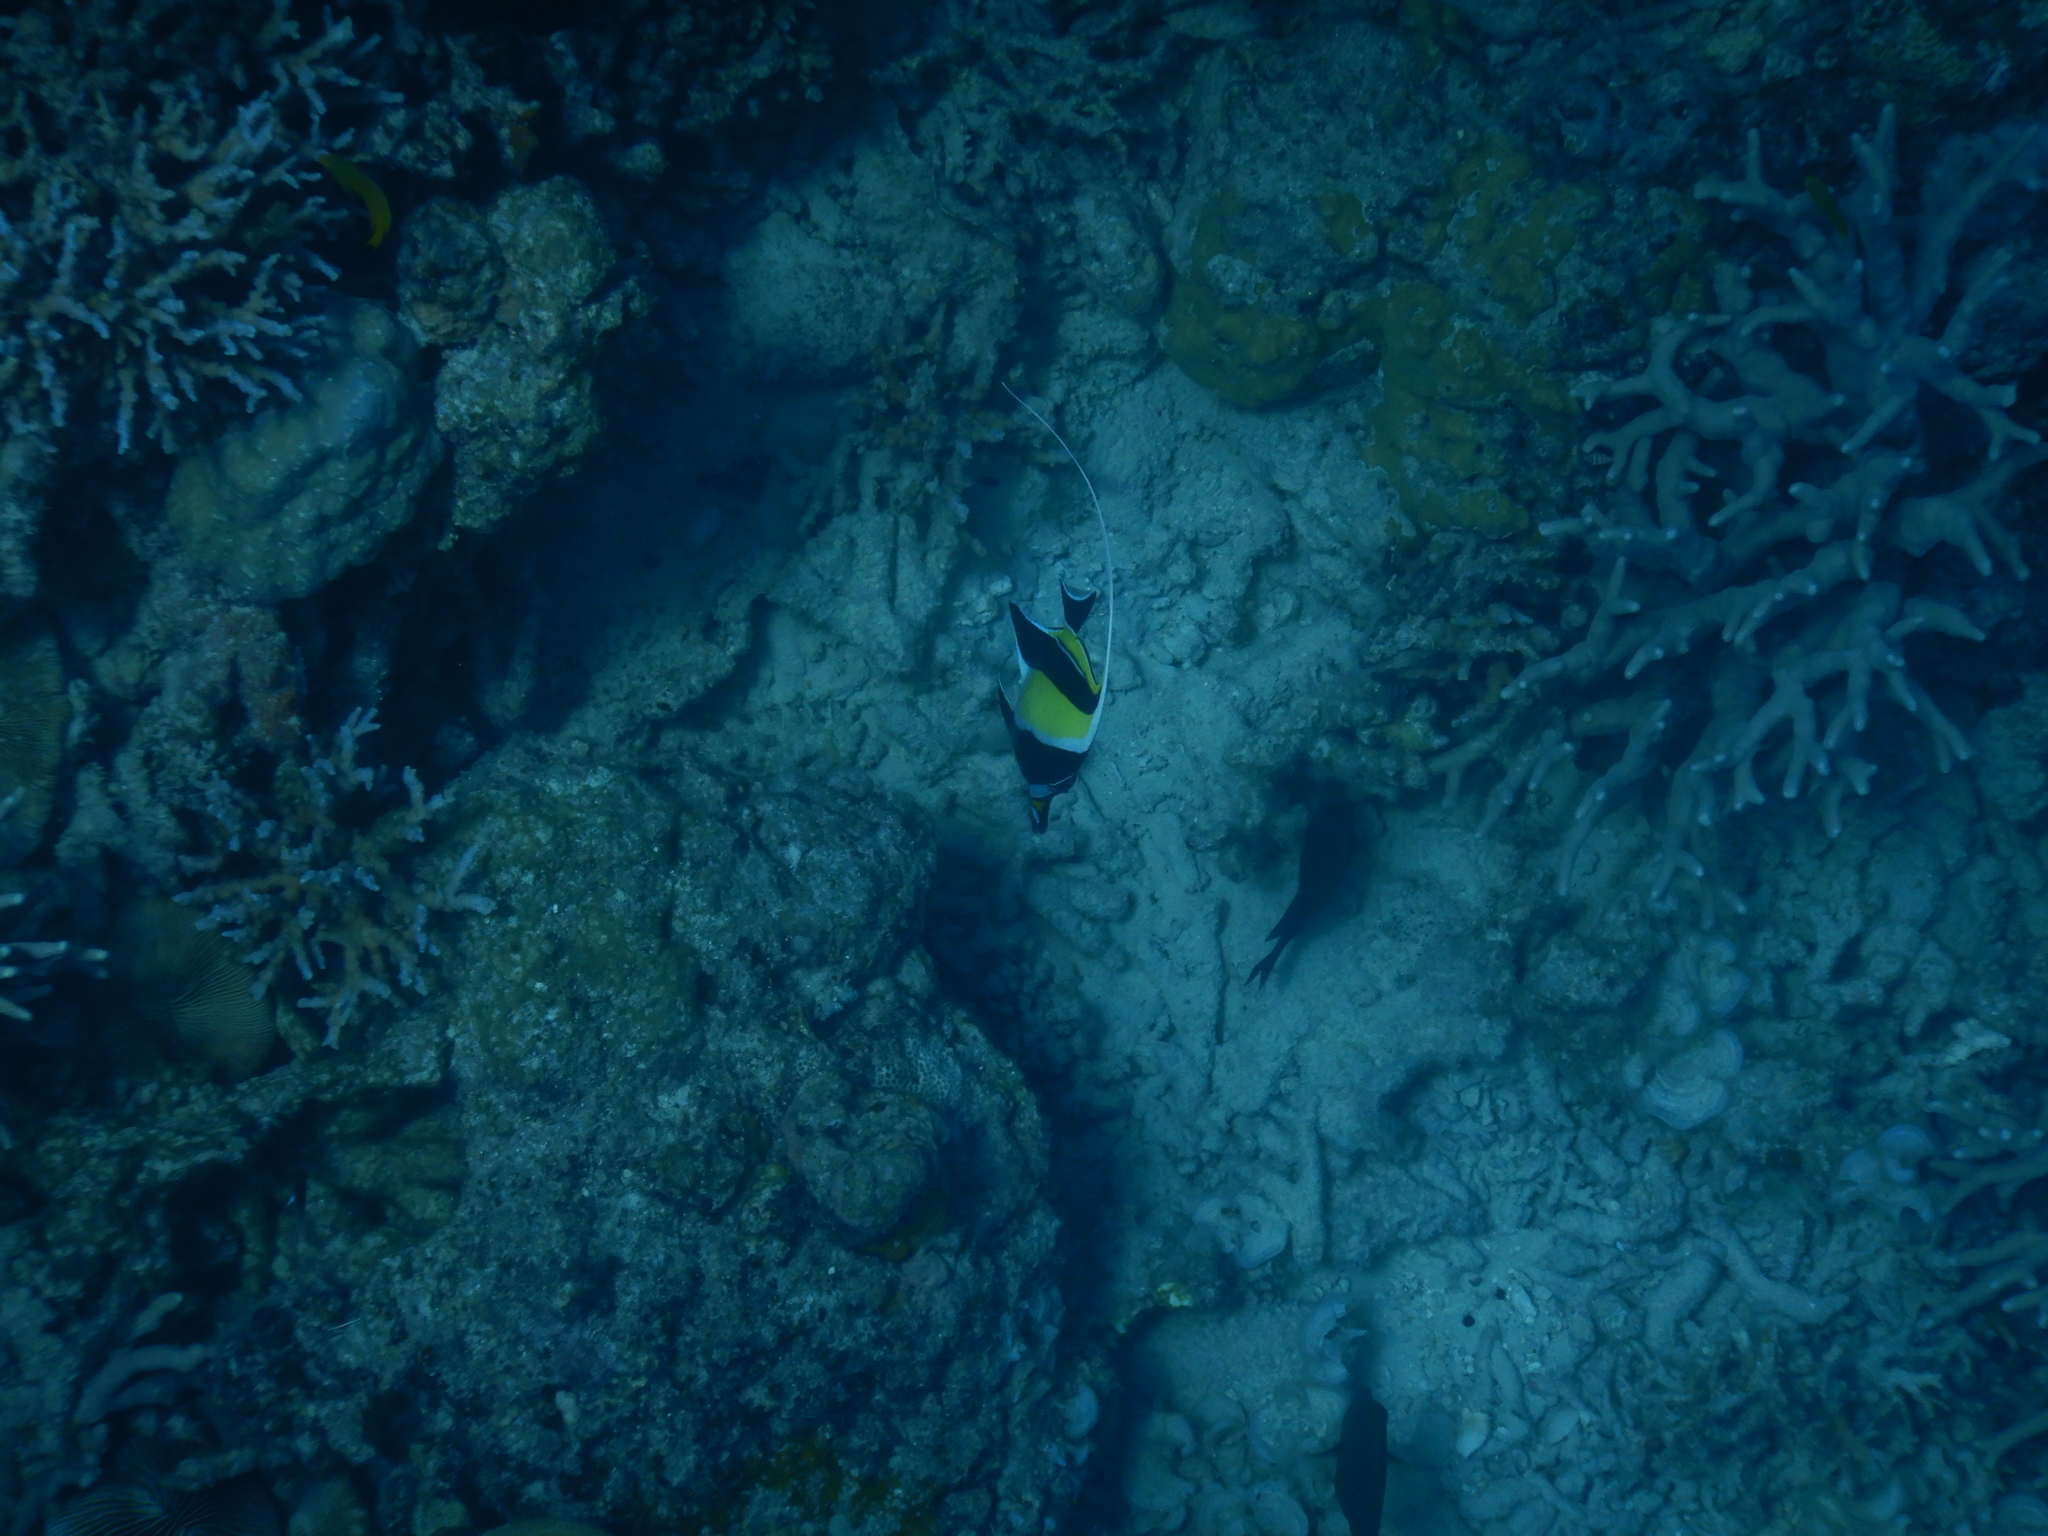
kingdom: Animalia
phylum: Chordata
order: Perciformes
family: Zanclidae
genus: Zanclus
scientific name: Zanclus cornutus
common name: Moorish idol
